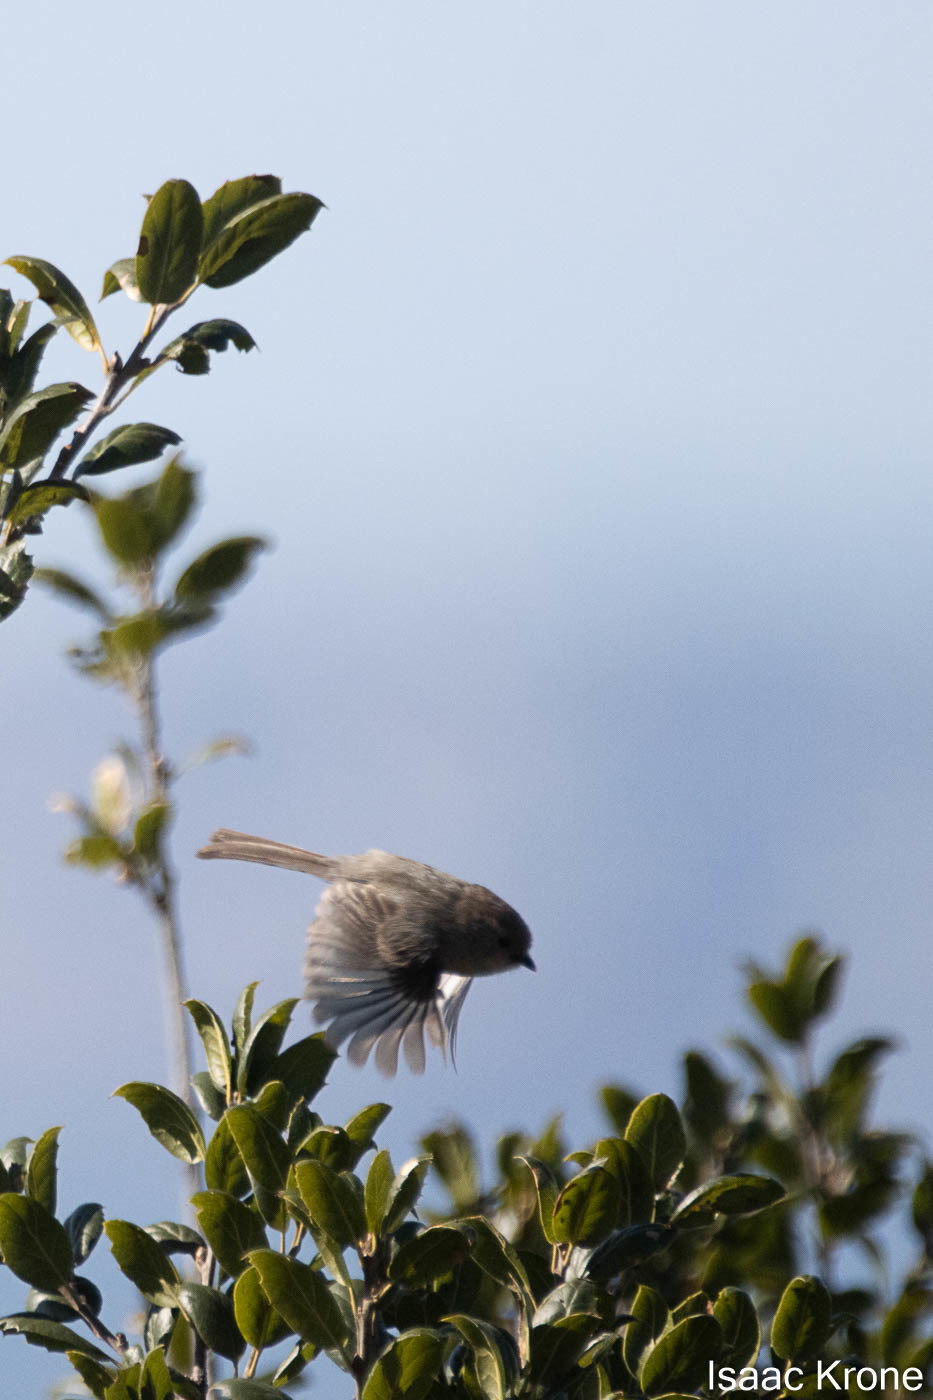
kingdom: Animalia
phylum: Chordata
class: Aves
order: Passeriformes
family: Aegithalidae
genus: Psaltriparus
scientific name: Psaltriparus minimus
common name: American bushtit
